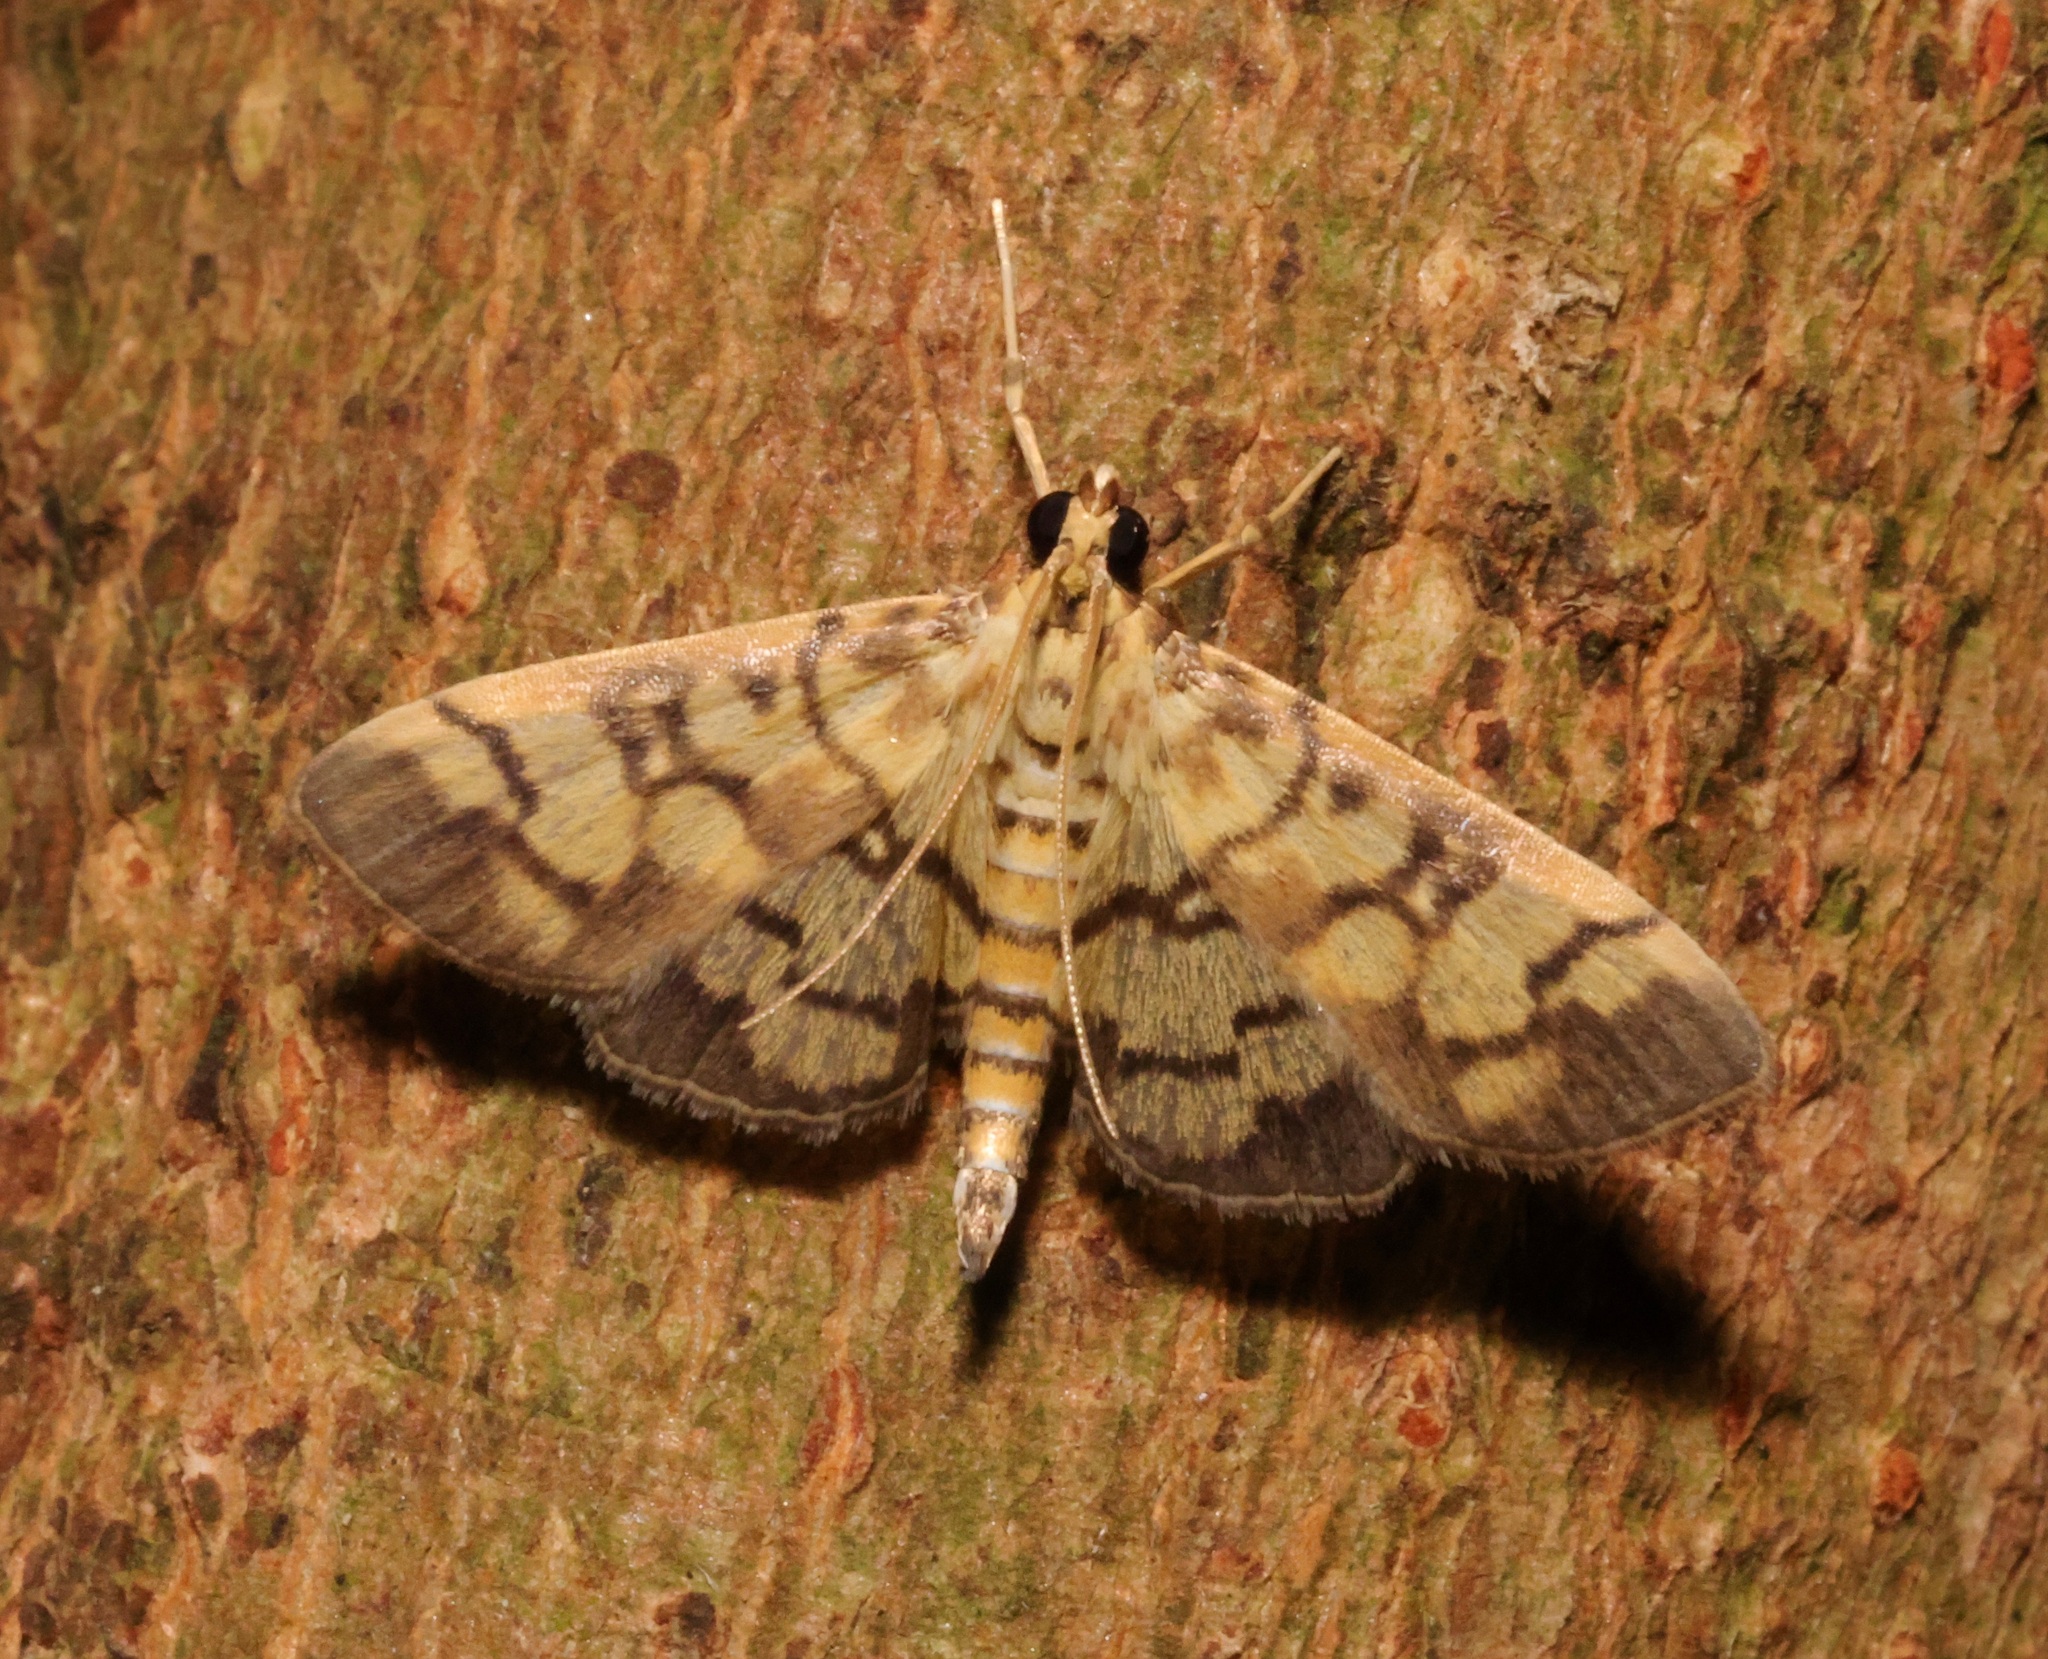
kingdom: Animalia
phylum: Arthropoda
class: Insecta
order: Lepidoptera
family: Crambidae
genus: Lygropia
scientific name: Lygropia distorta
